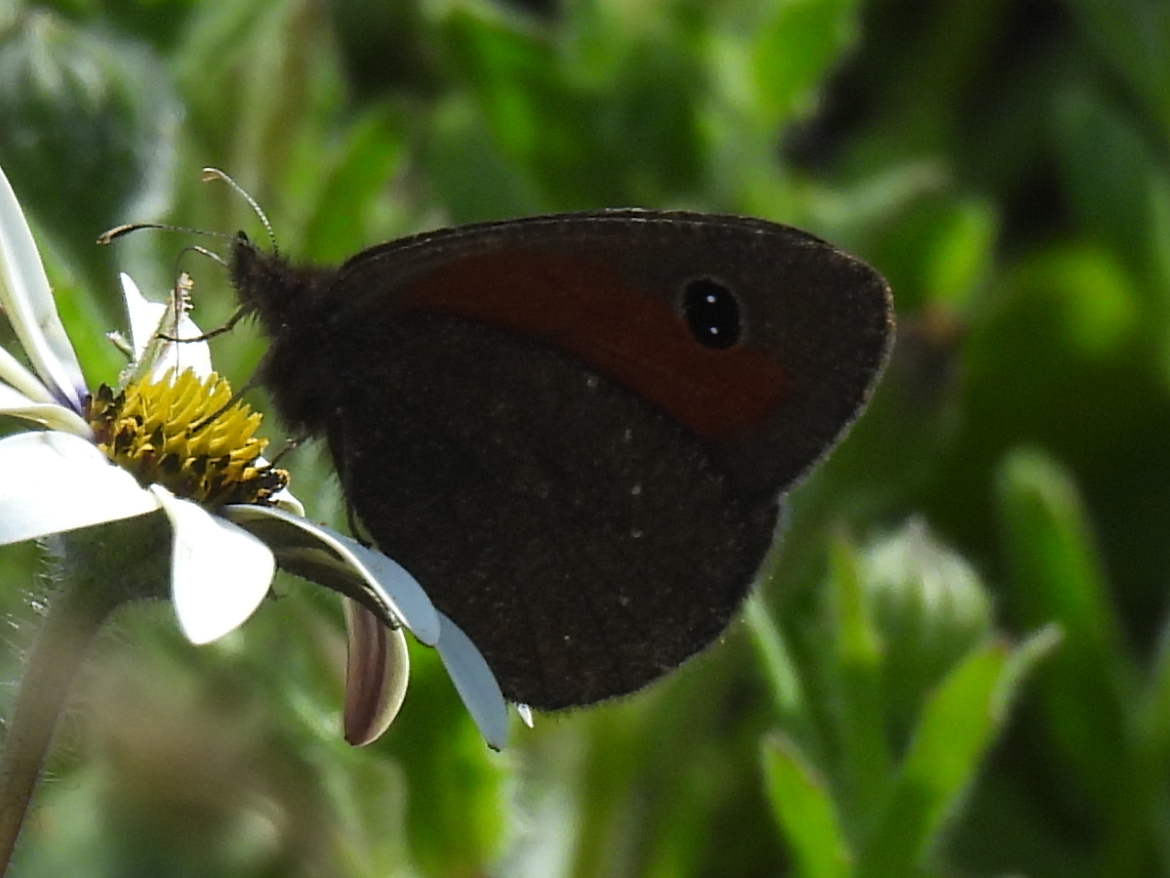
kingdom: Animalia
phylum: Arthropoda
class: Insecta
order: Lepidoptera
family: Nymphalidae
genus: Erebia
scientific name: Erebia
